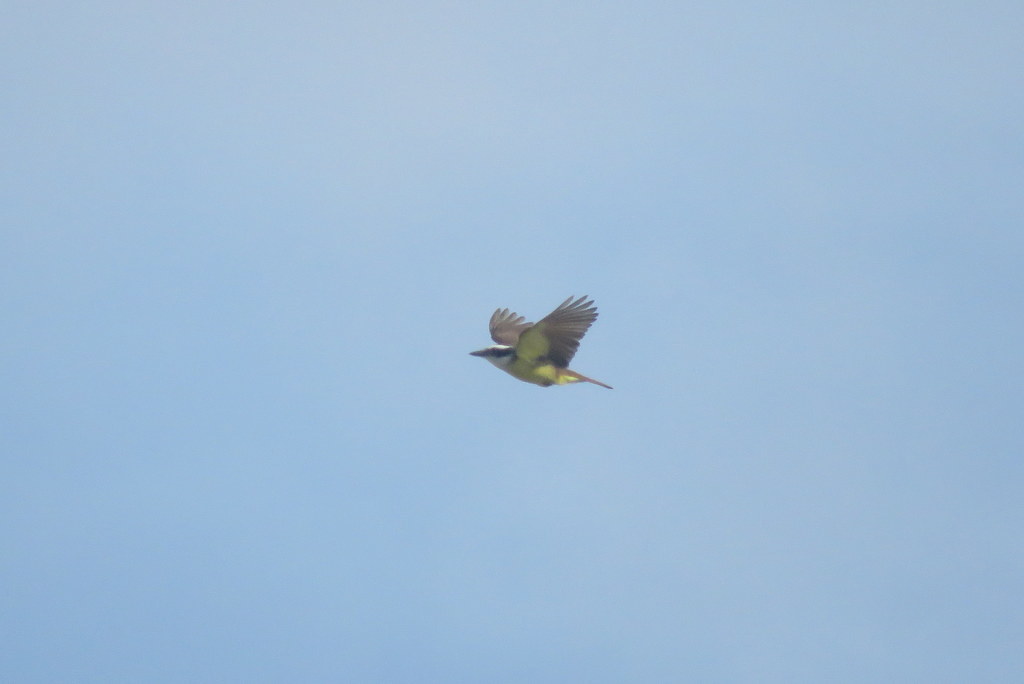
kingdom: Animalia
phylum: Chordata
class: Aves
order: Passeriformes
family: Tyrannidae
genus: Pitangus
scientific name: Pitangus sulphuratus
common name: Great kiskadee
